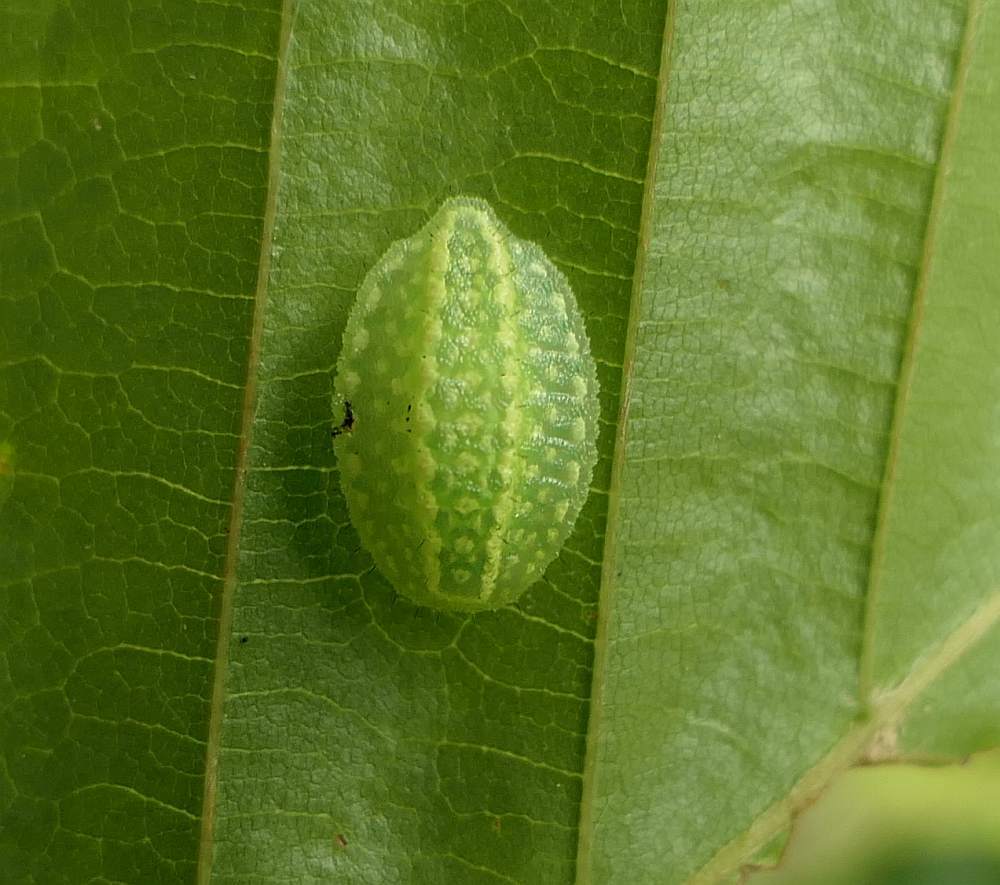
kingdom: Animalia
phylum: Arthropoda
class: Insecta
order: Lepidoptera
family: Limacodidae
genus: Lithacodes
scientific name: Lithacodes fasciola
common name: Yellow-shouldered slug moth
